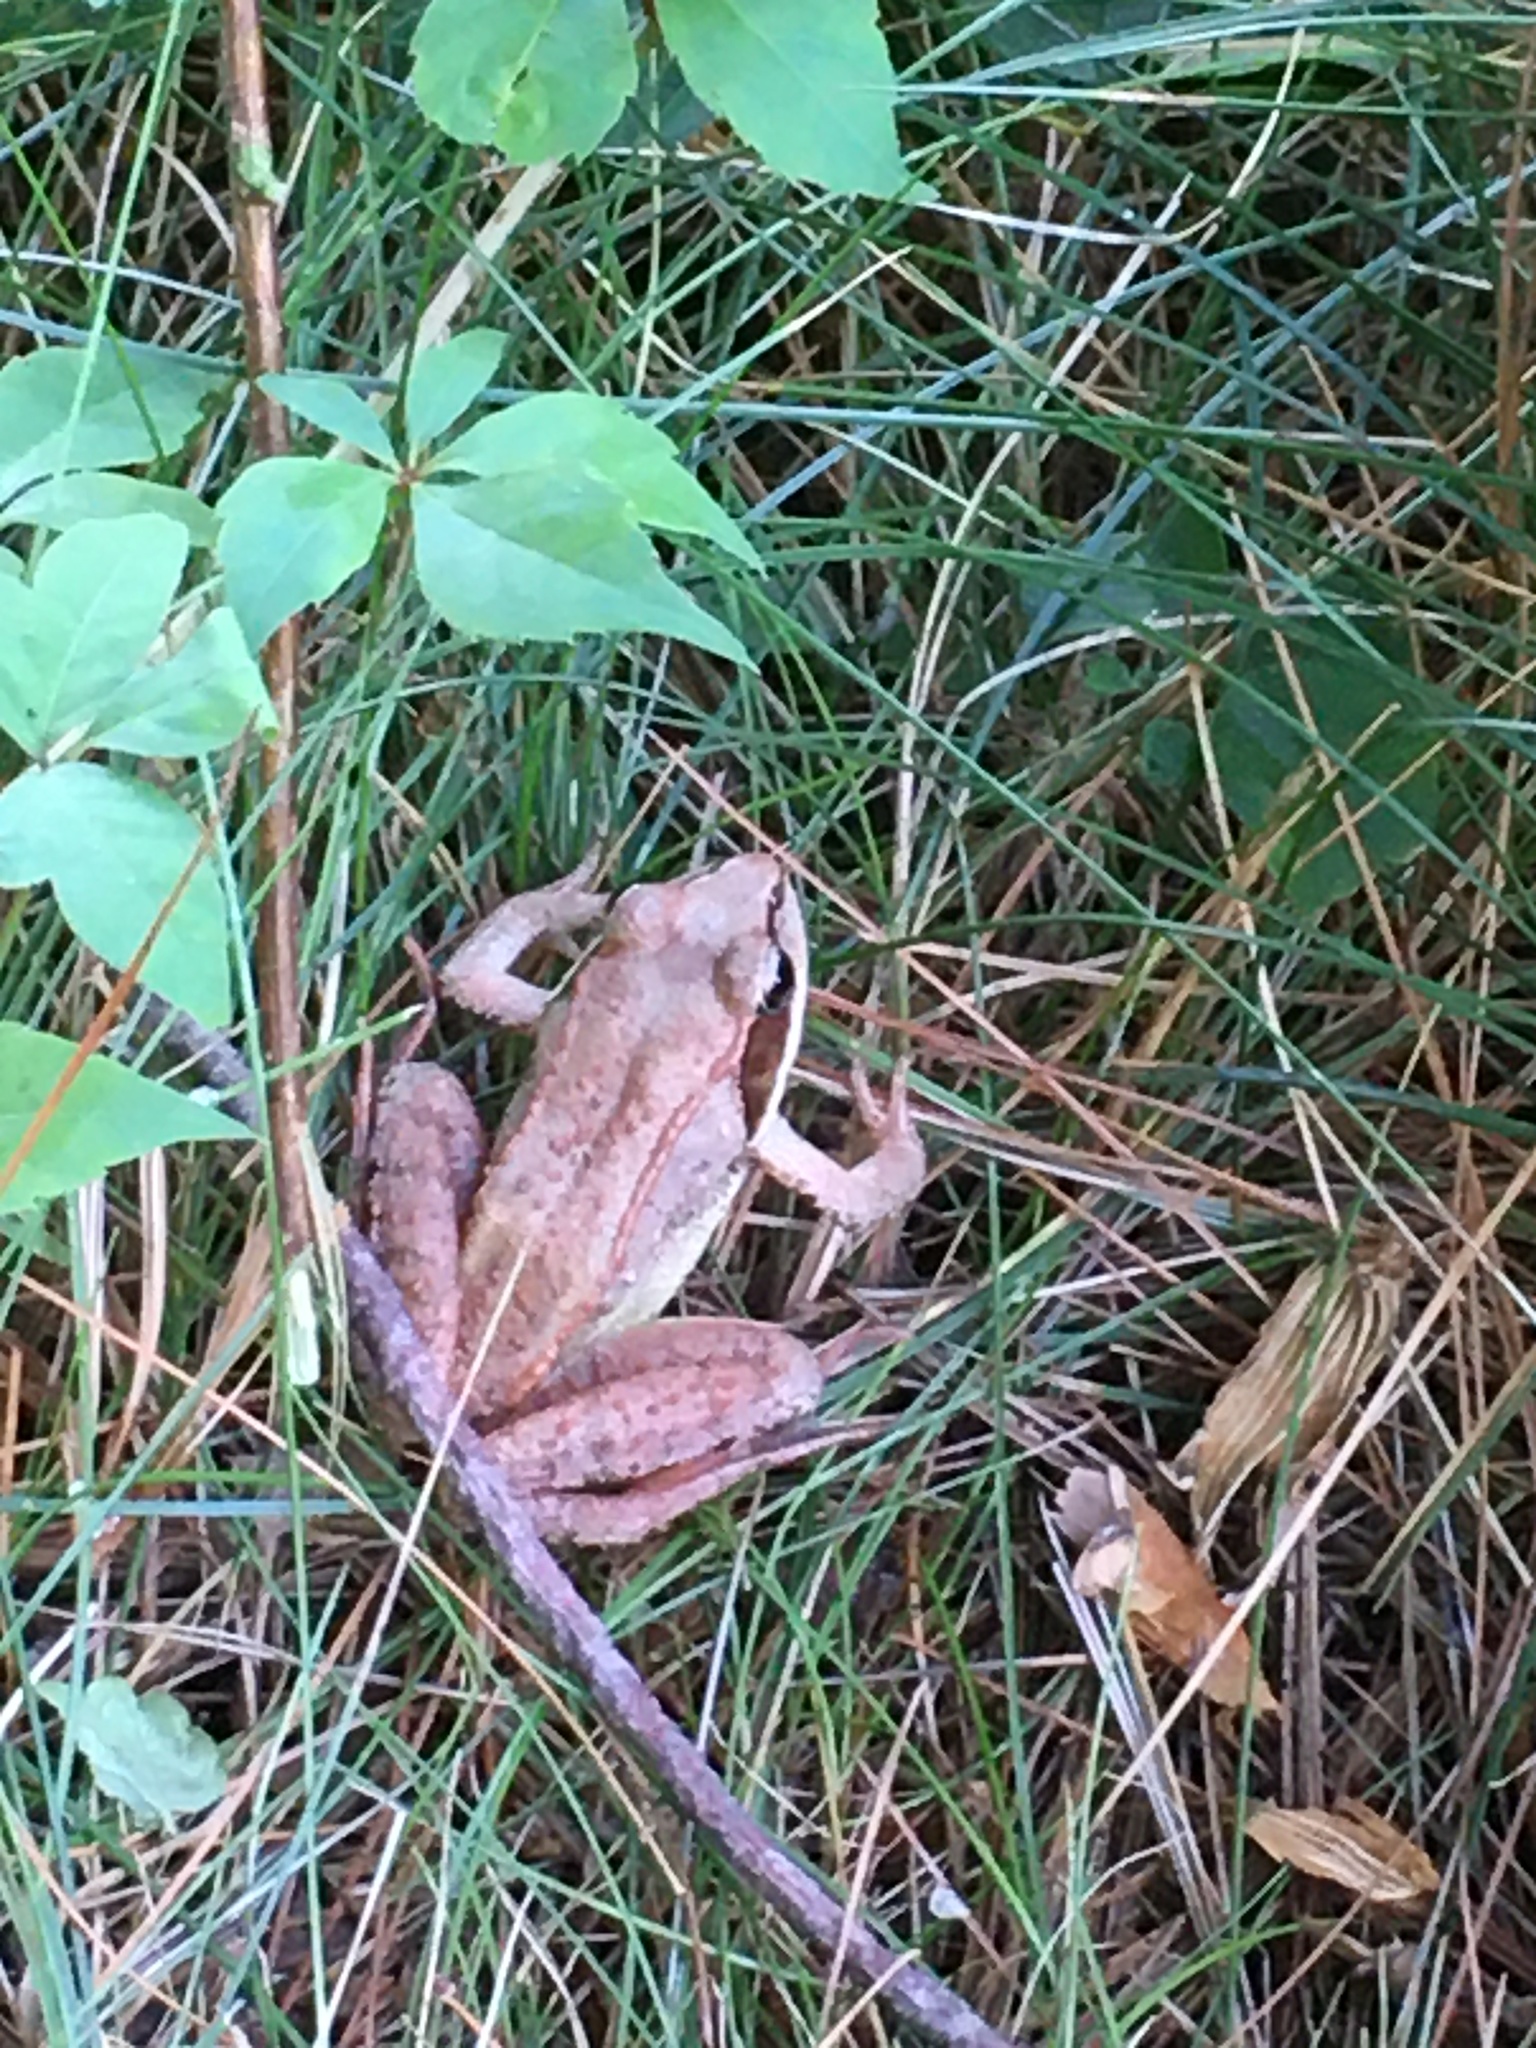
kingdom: Animalia
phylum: Chordata
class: Amphibia
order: Anura
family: Ranidae
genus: Lithobates
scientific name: Lithobates sylvaticus
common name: Wood frog
